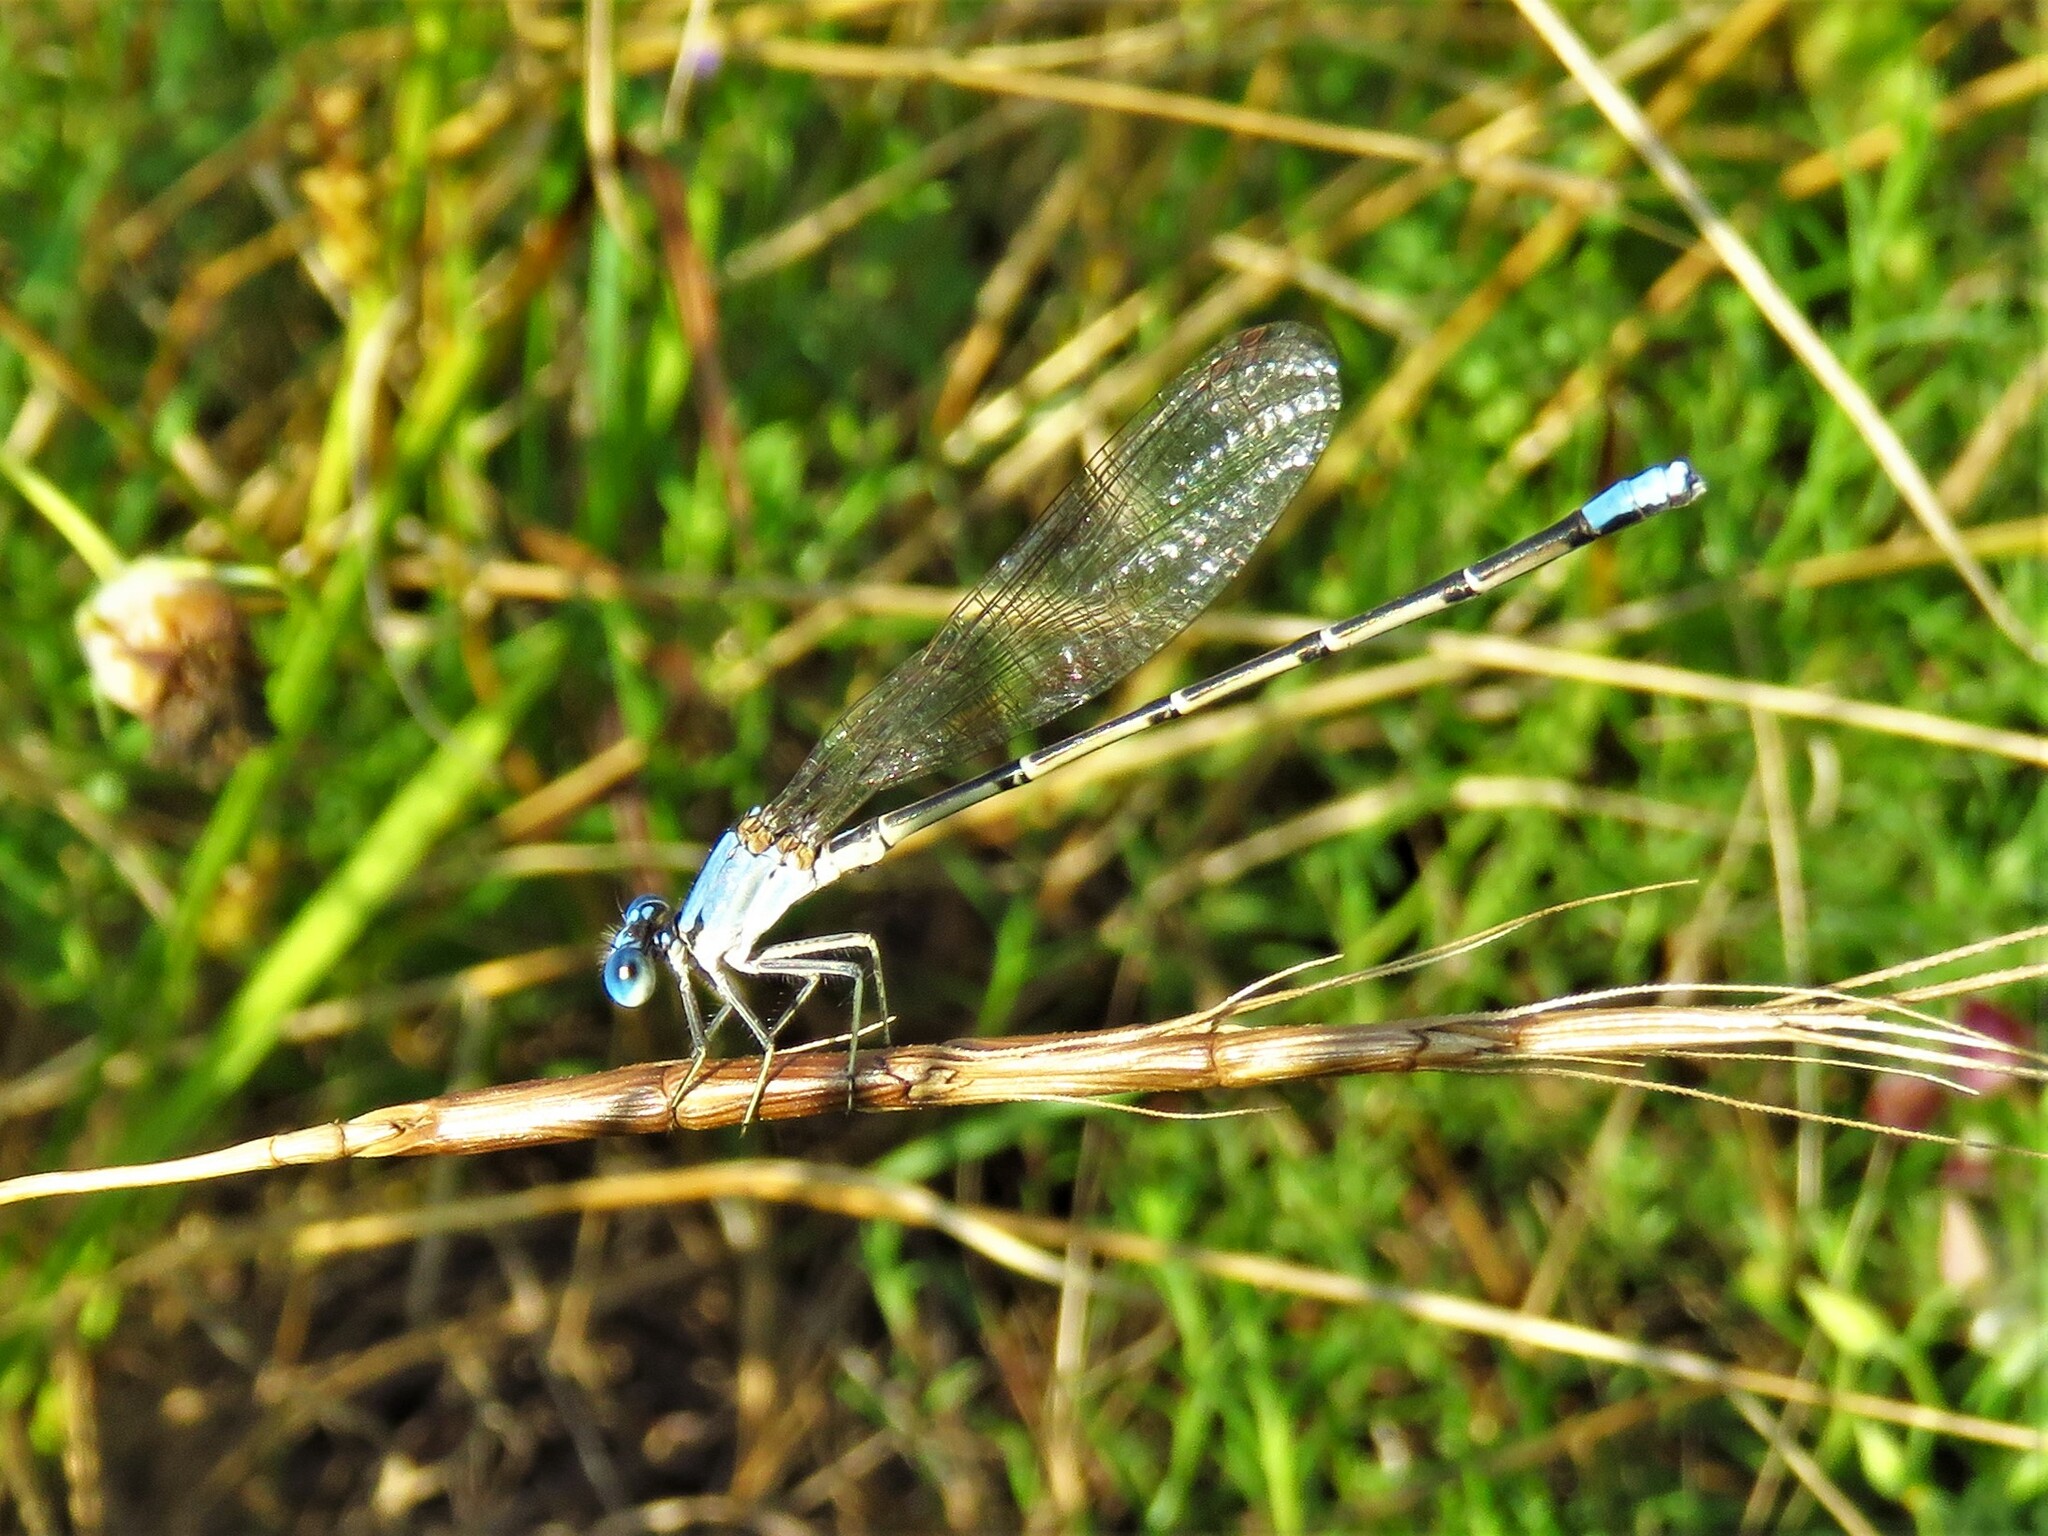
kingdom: Animalia
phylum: Arthropoda
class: Insecta
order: Odonata
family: Coenagrionidae
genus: Argia
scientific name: Argia apicalis
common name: Blue-fronted dancer
